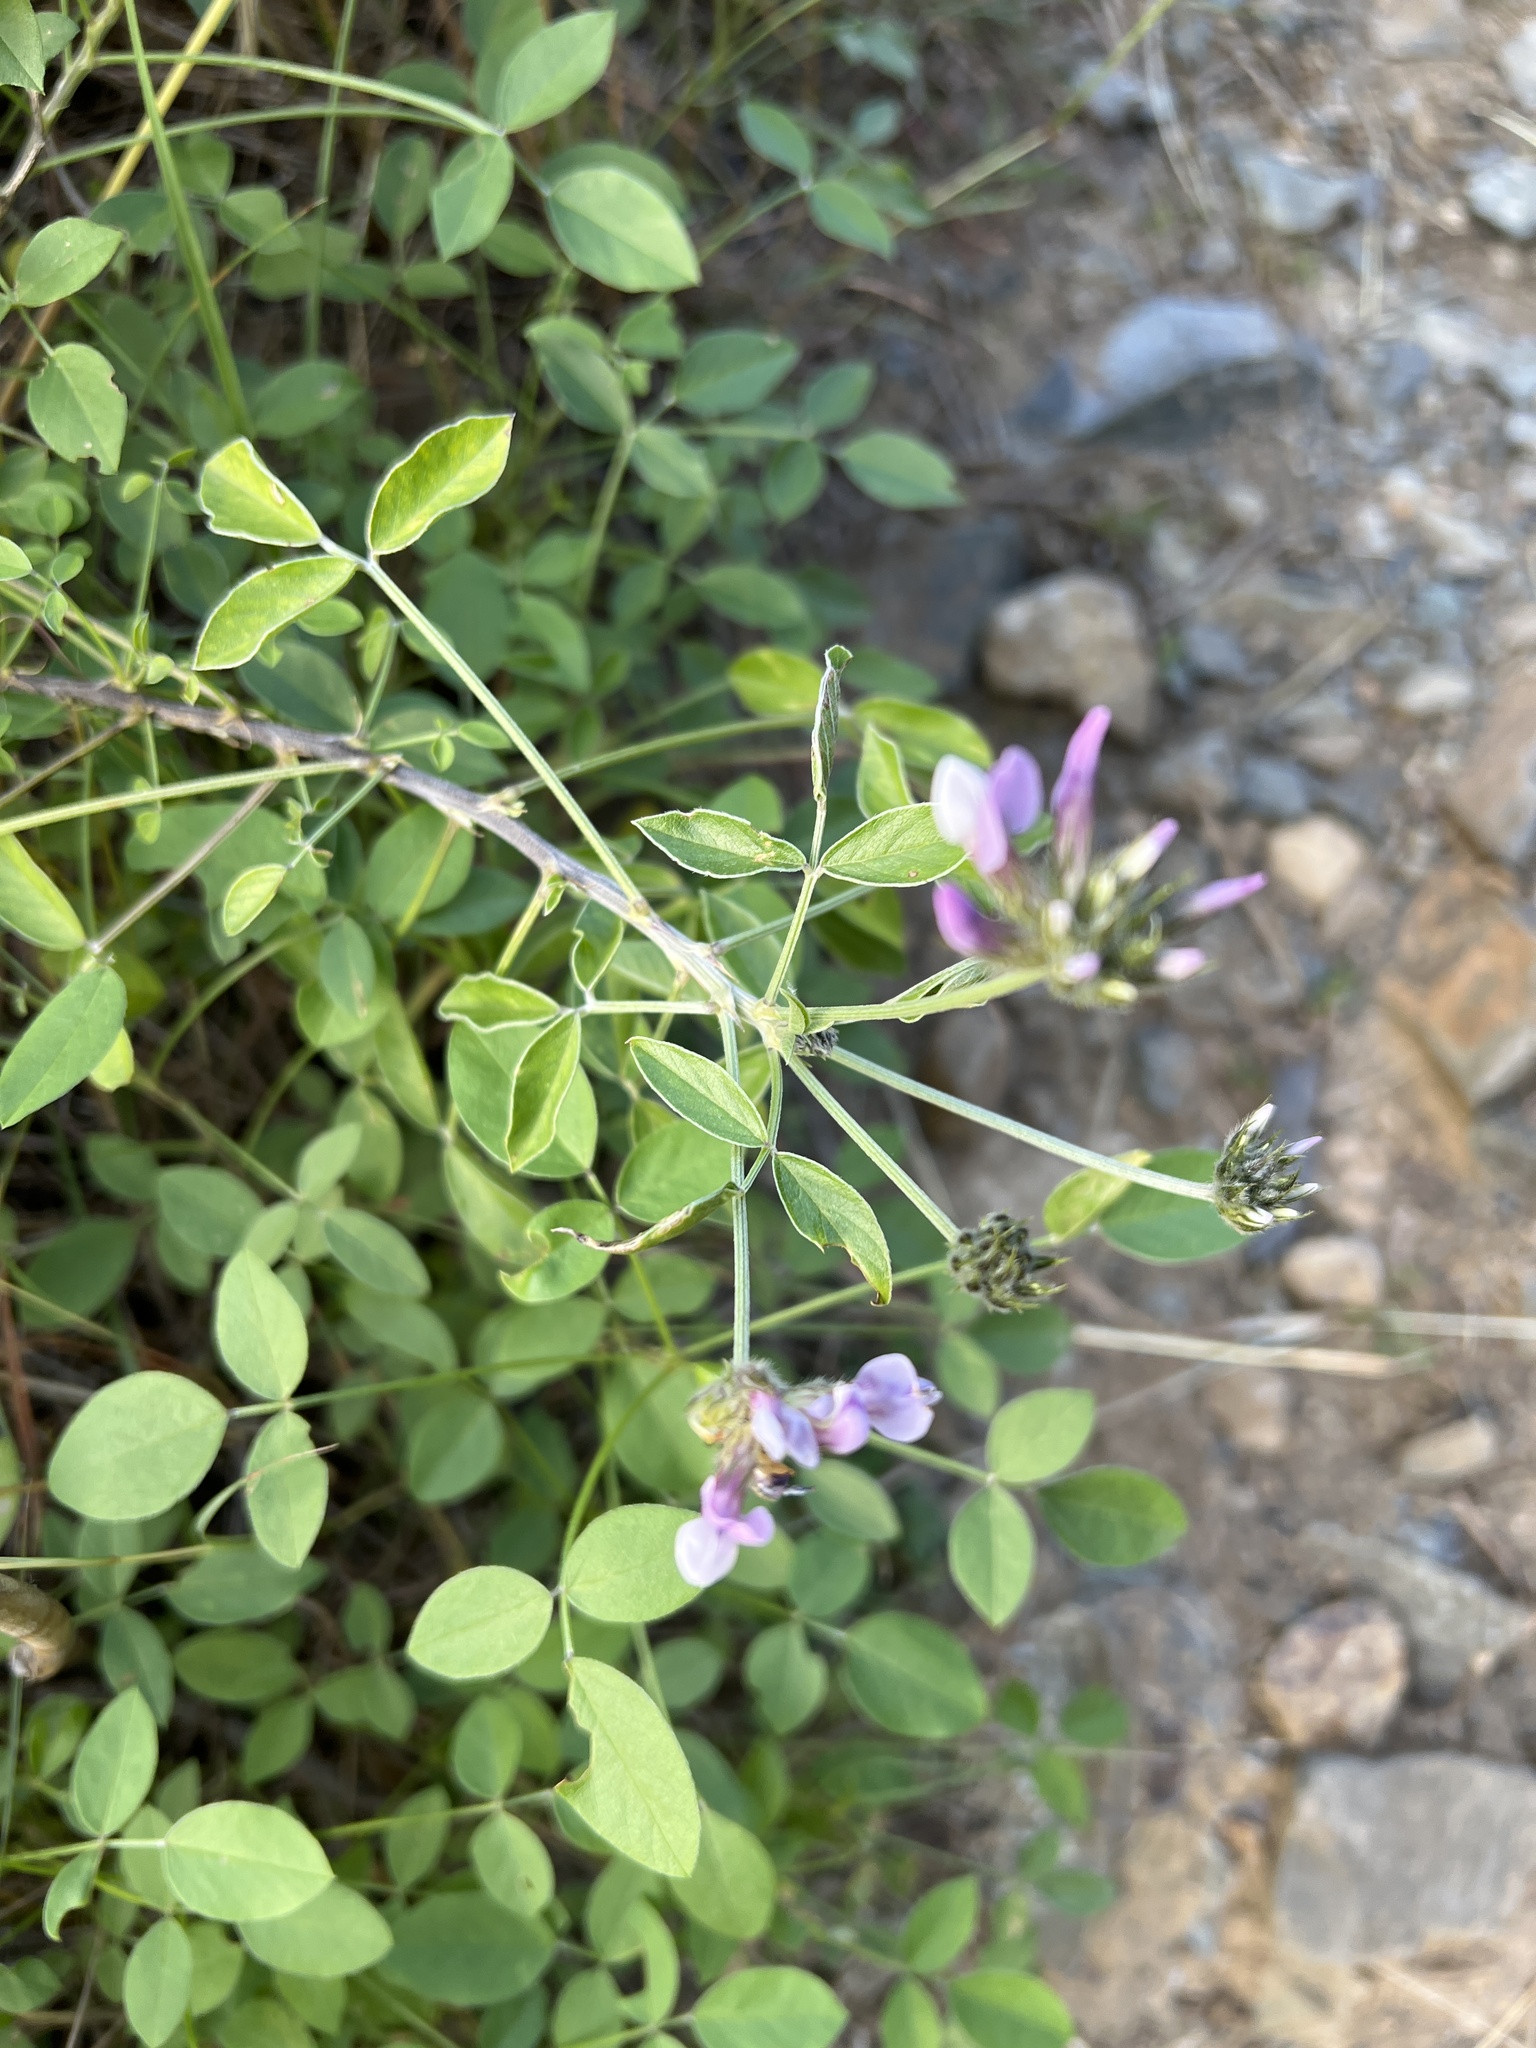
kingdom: Plantae
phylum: Tracheophyta
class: Magnoliopsida
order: Fabales
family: Fabaceae
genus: Bituminaria
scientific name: Bituminaria bituminosa
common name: Arabian pea
